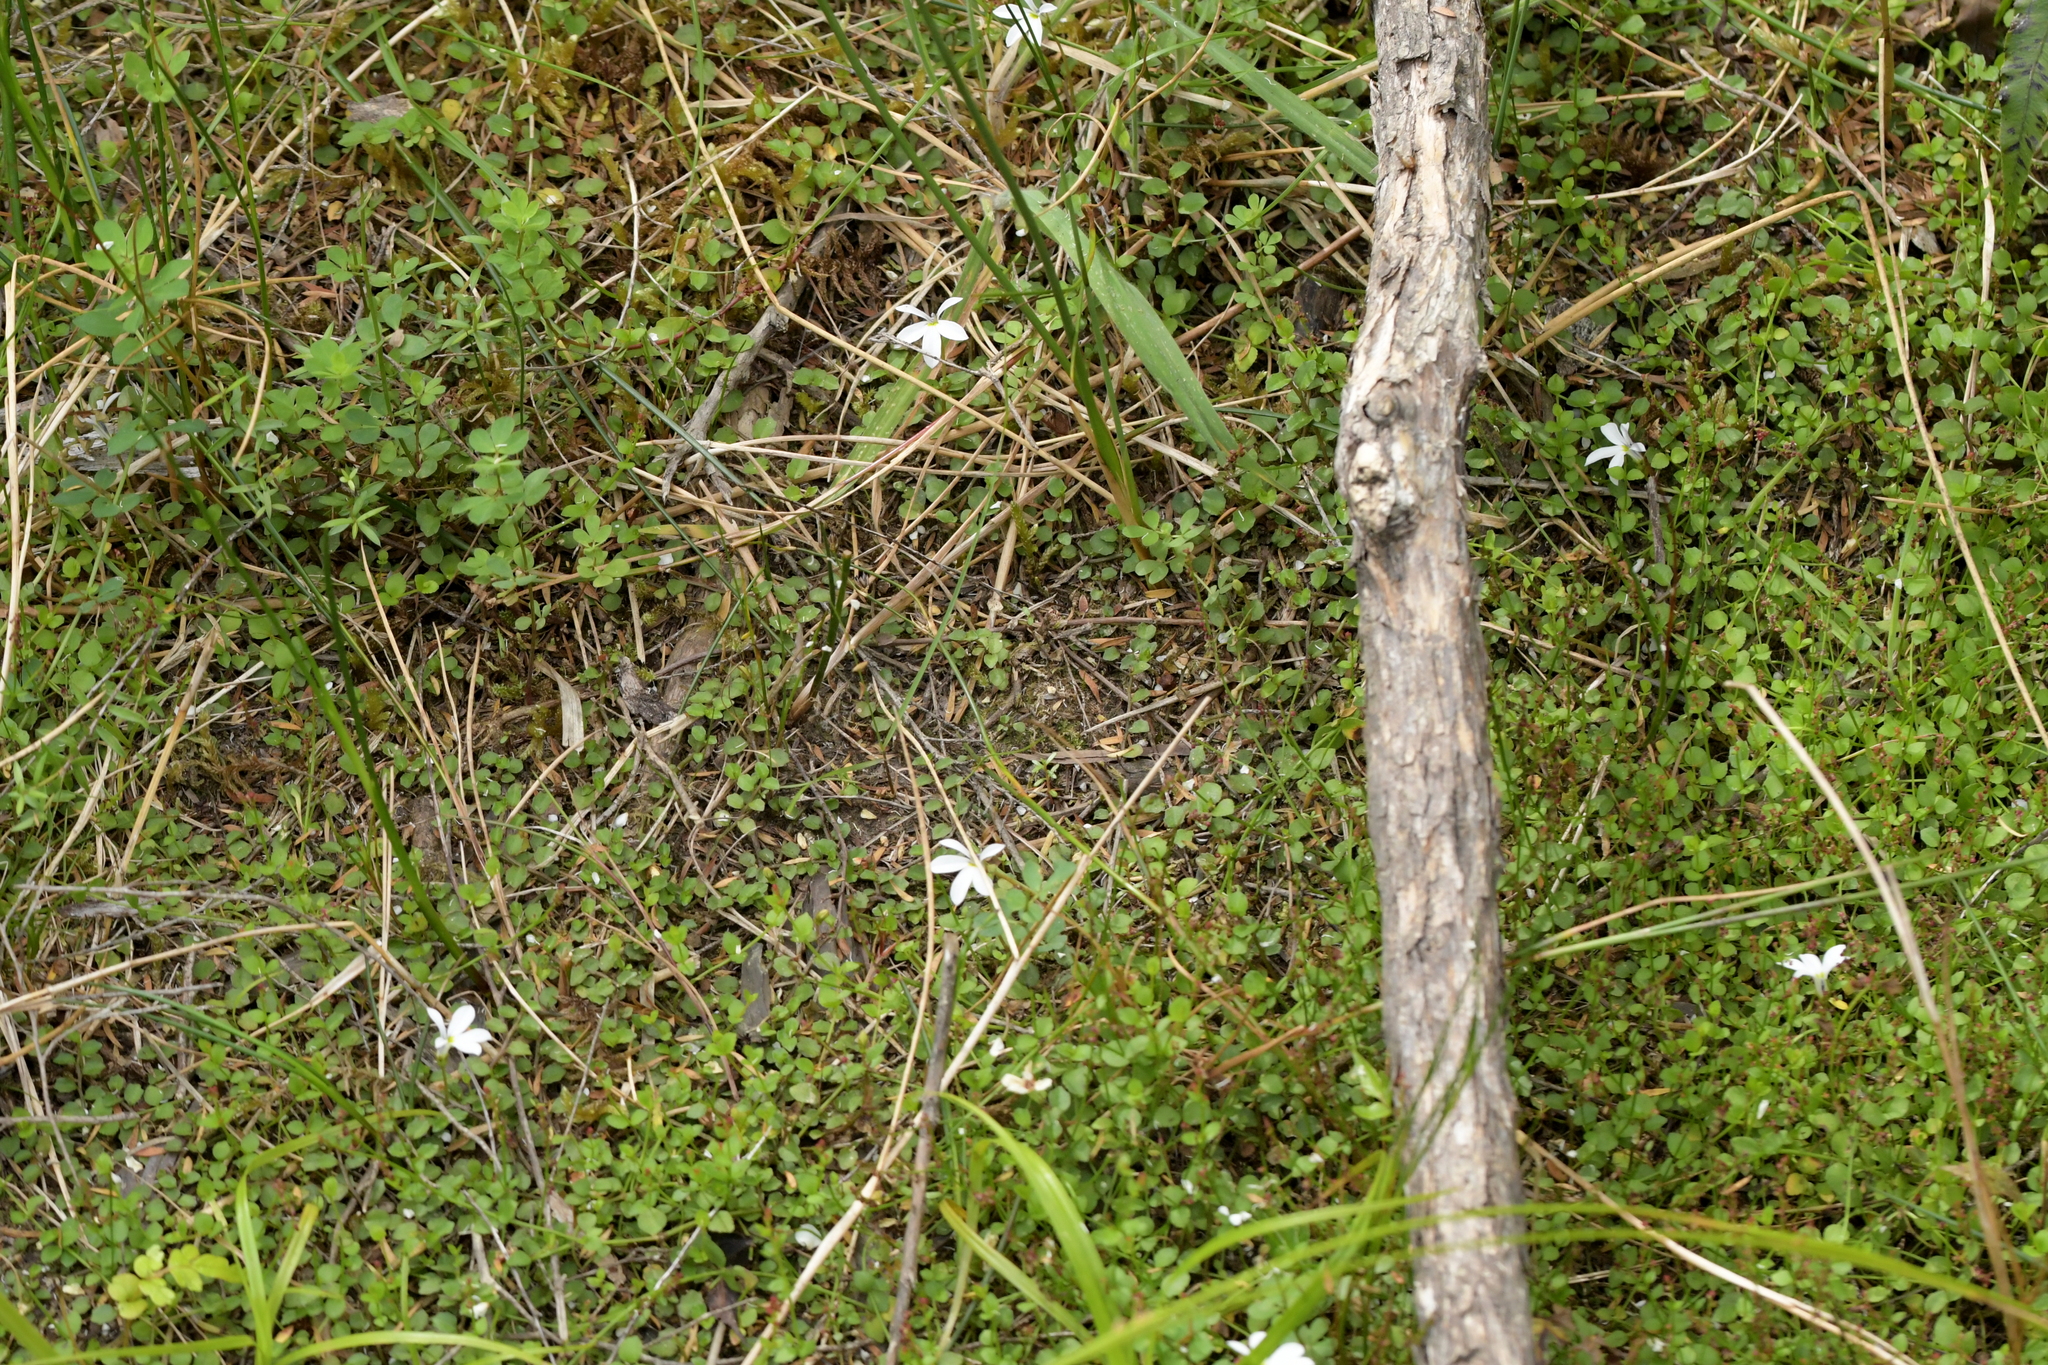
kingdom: Plantae
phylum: Tracheophyta
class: Magnoliopsida
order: Asterales
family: Campanulaceae
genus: Lobelia
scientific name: Lobelia angulata
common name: Lawn lobelia
